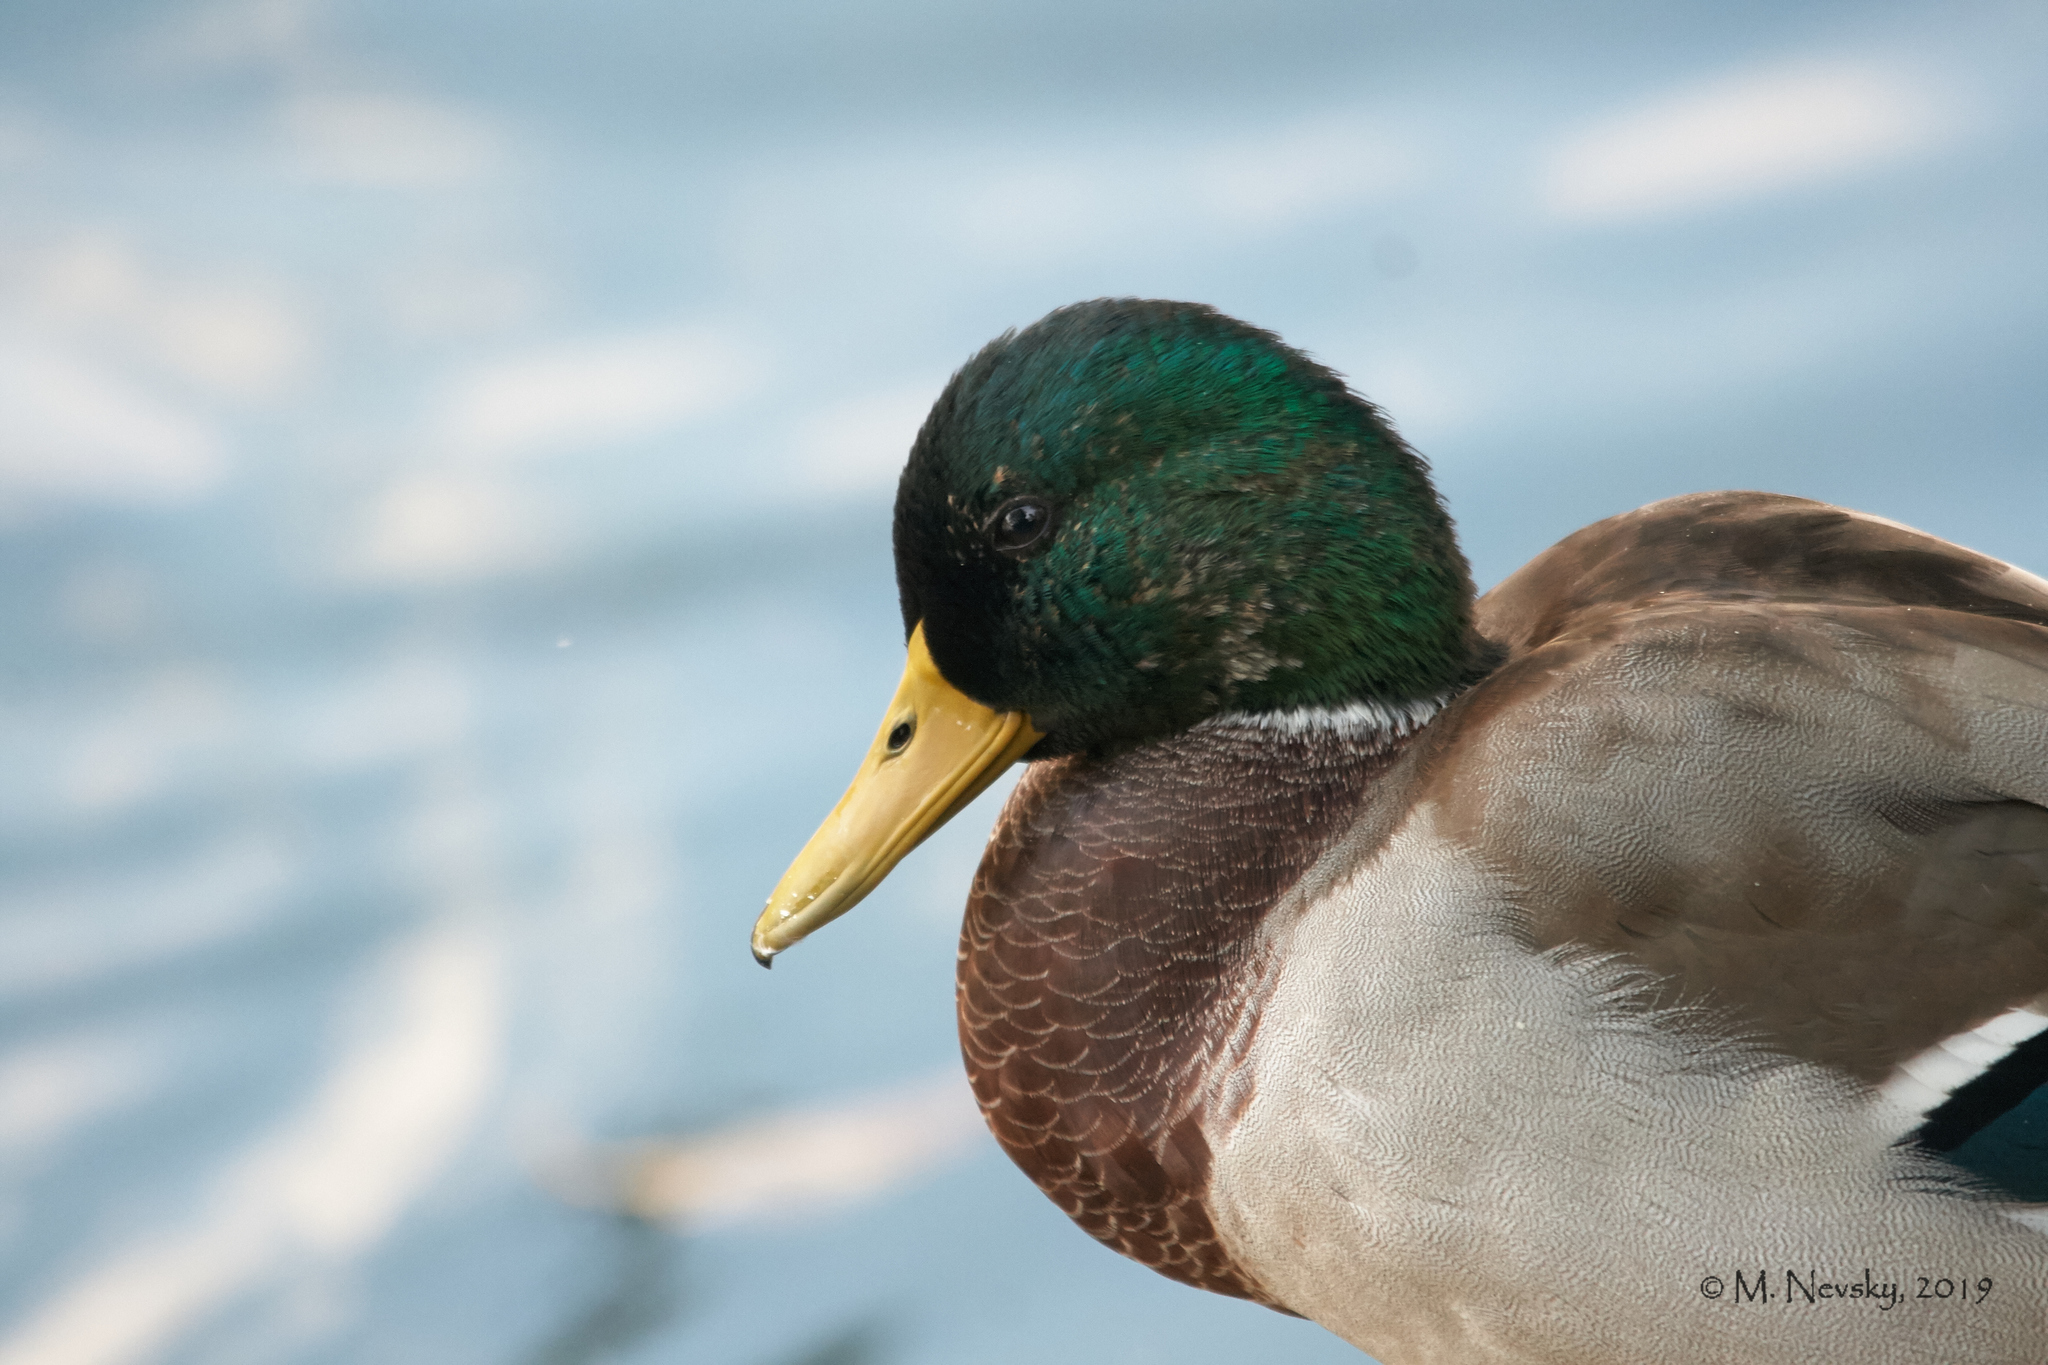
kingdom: Animalia
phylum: Chordata
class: Aves
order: Anseriformes
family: Anatidae
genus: Anas
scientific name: Anas platyrhynchos
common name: Mallard
